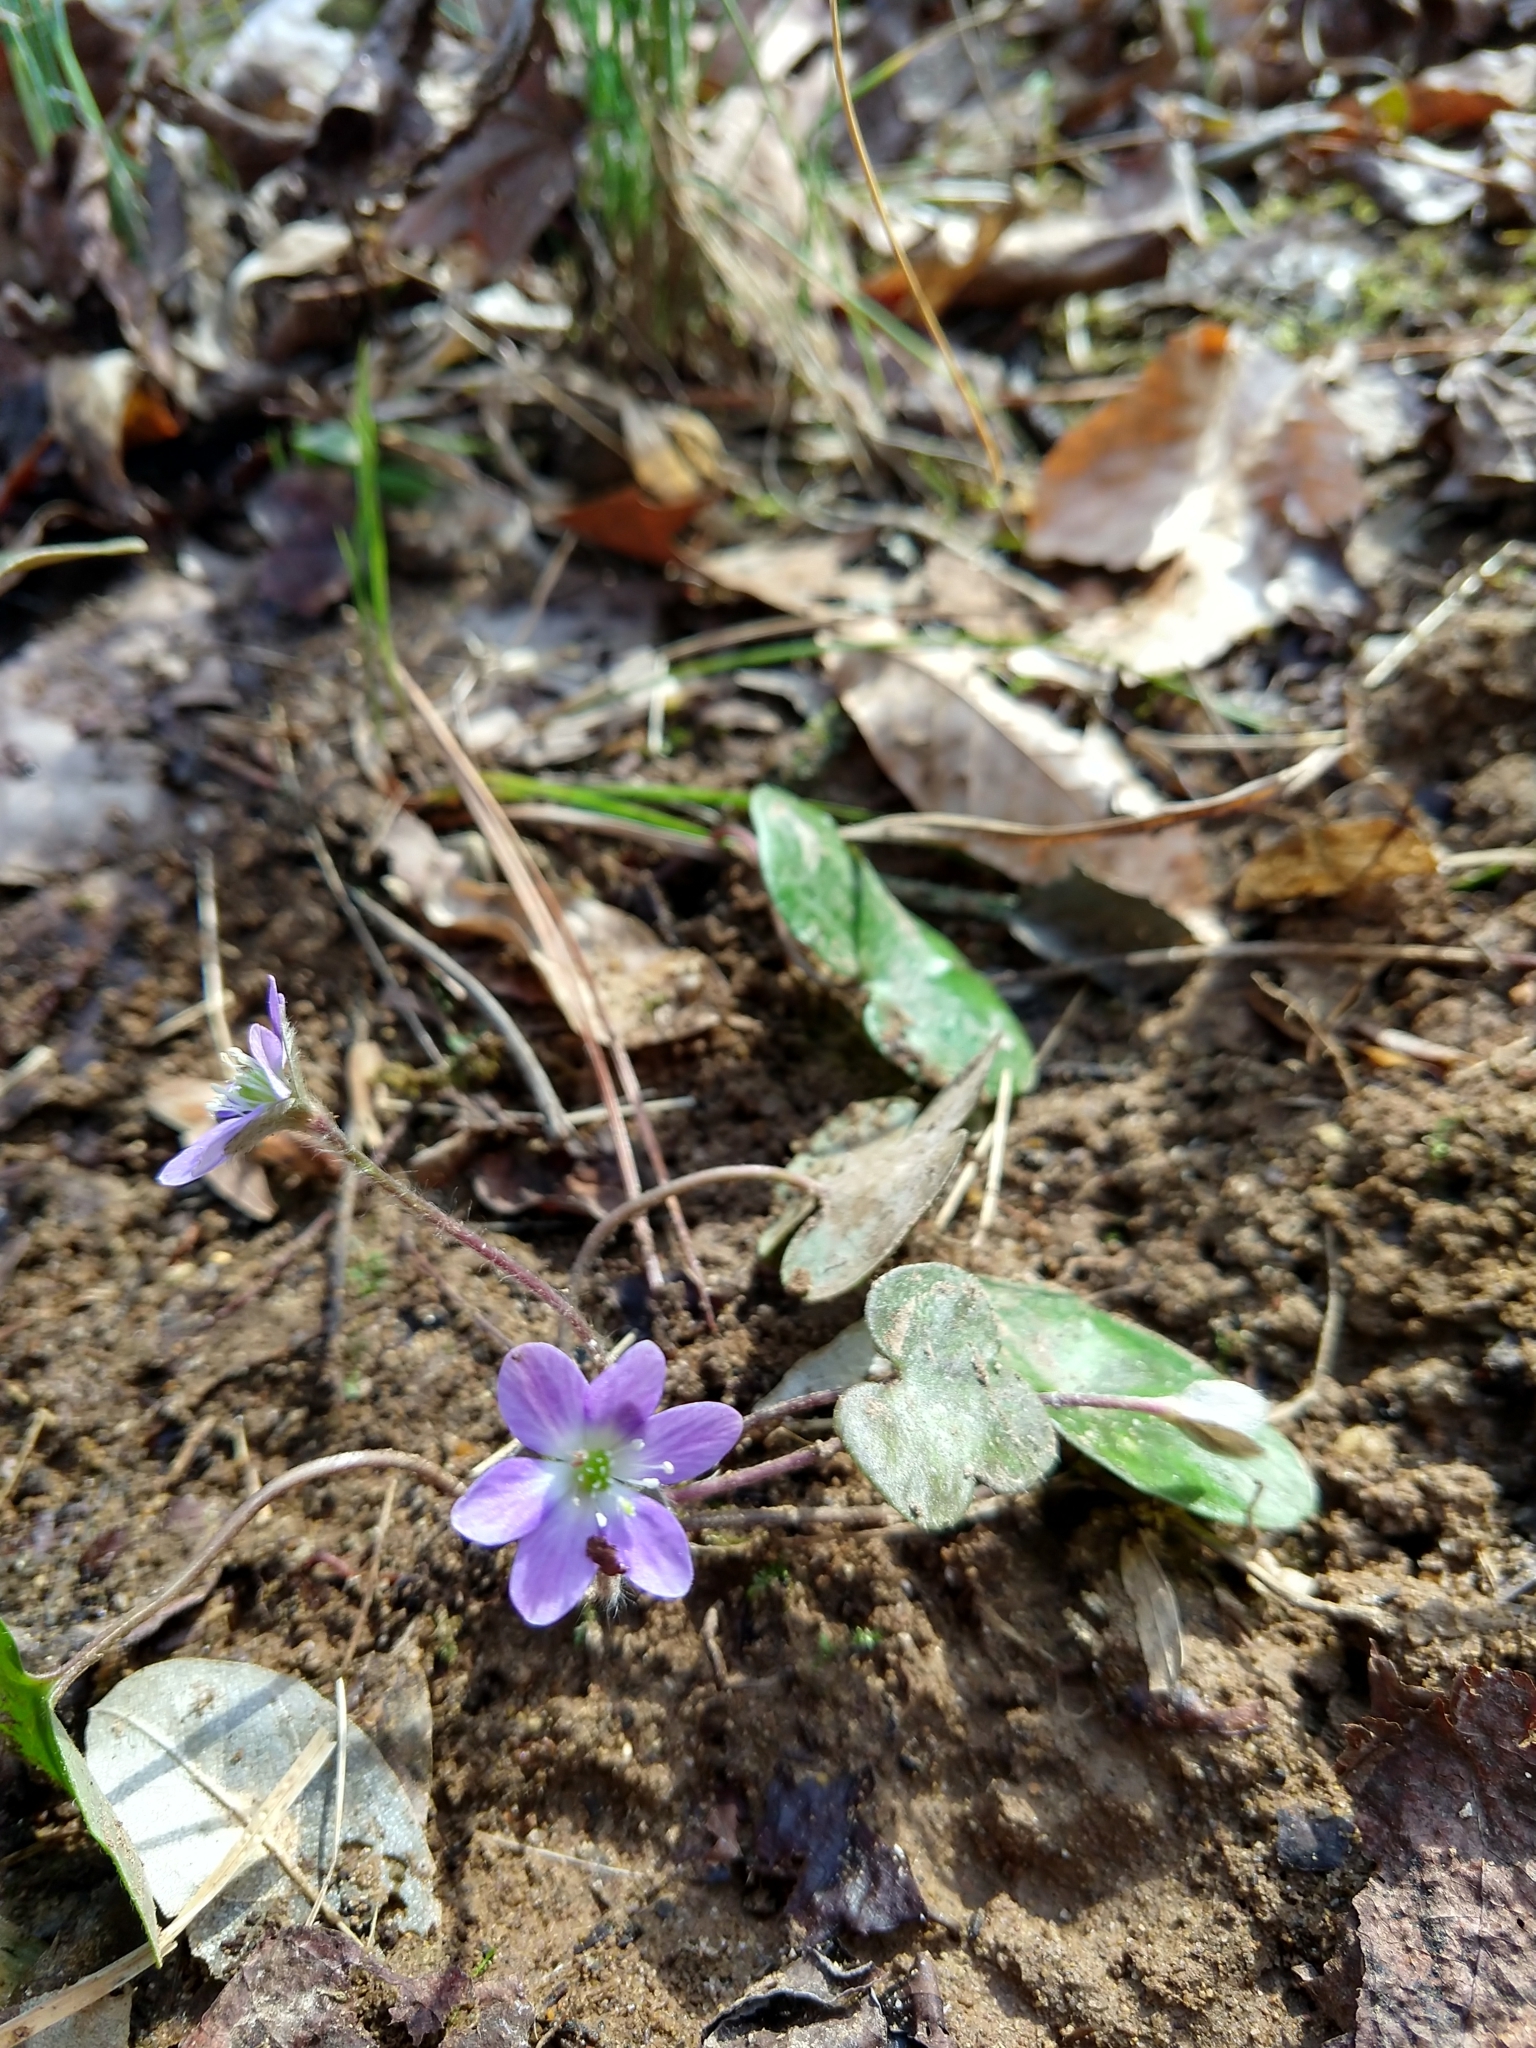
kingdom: Plantae
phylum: Tracheophyta
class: Magnoliopsida
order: Ranunculales
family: Ranunculaceae
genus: Hepatica
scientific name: Hepatica americana
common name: American hepatica
